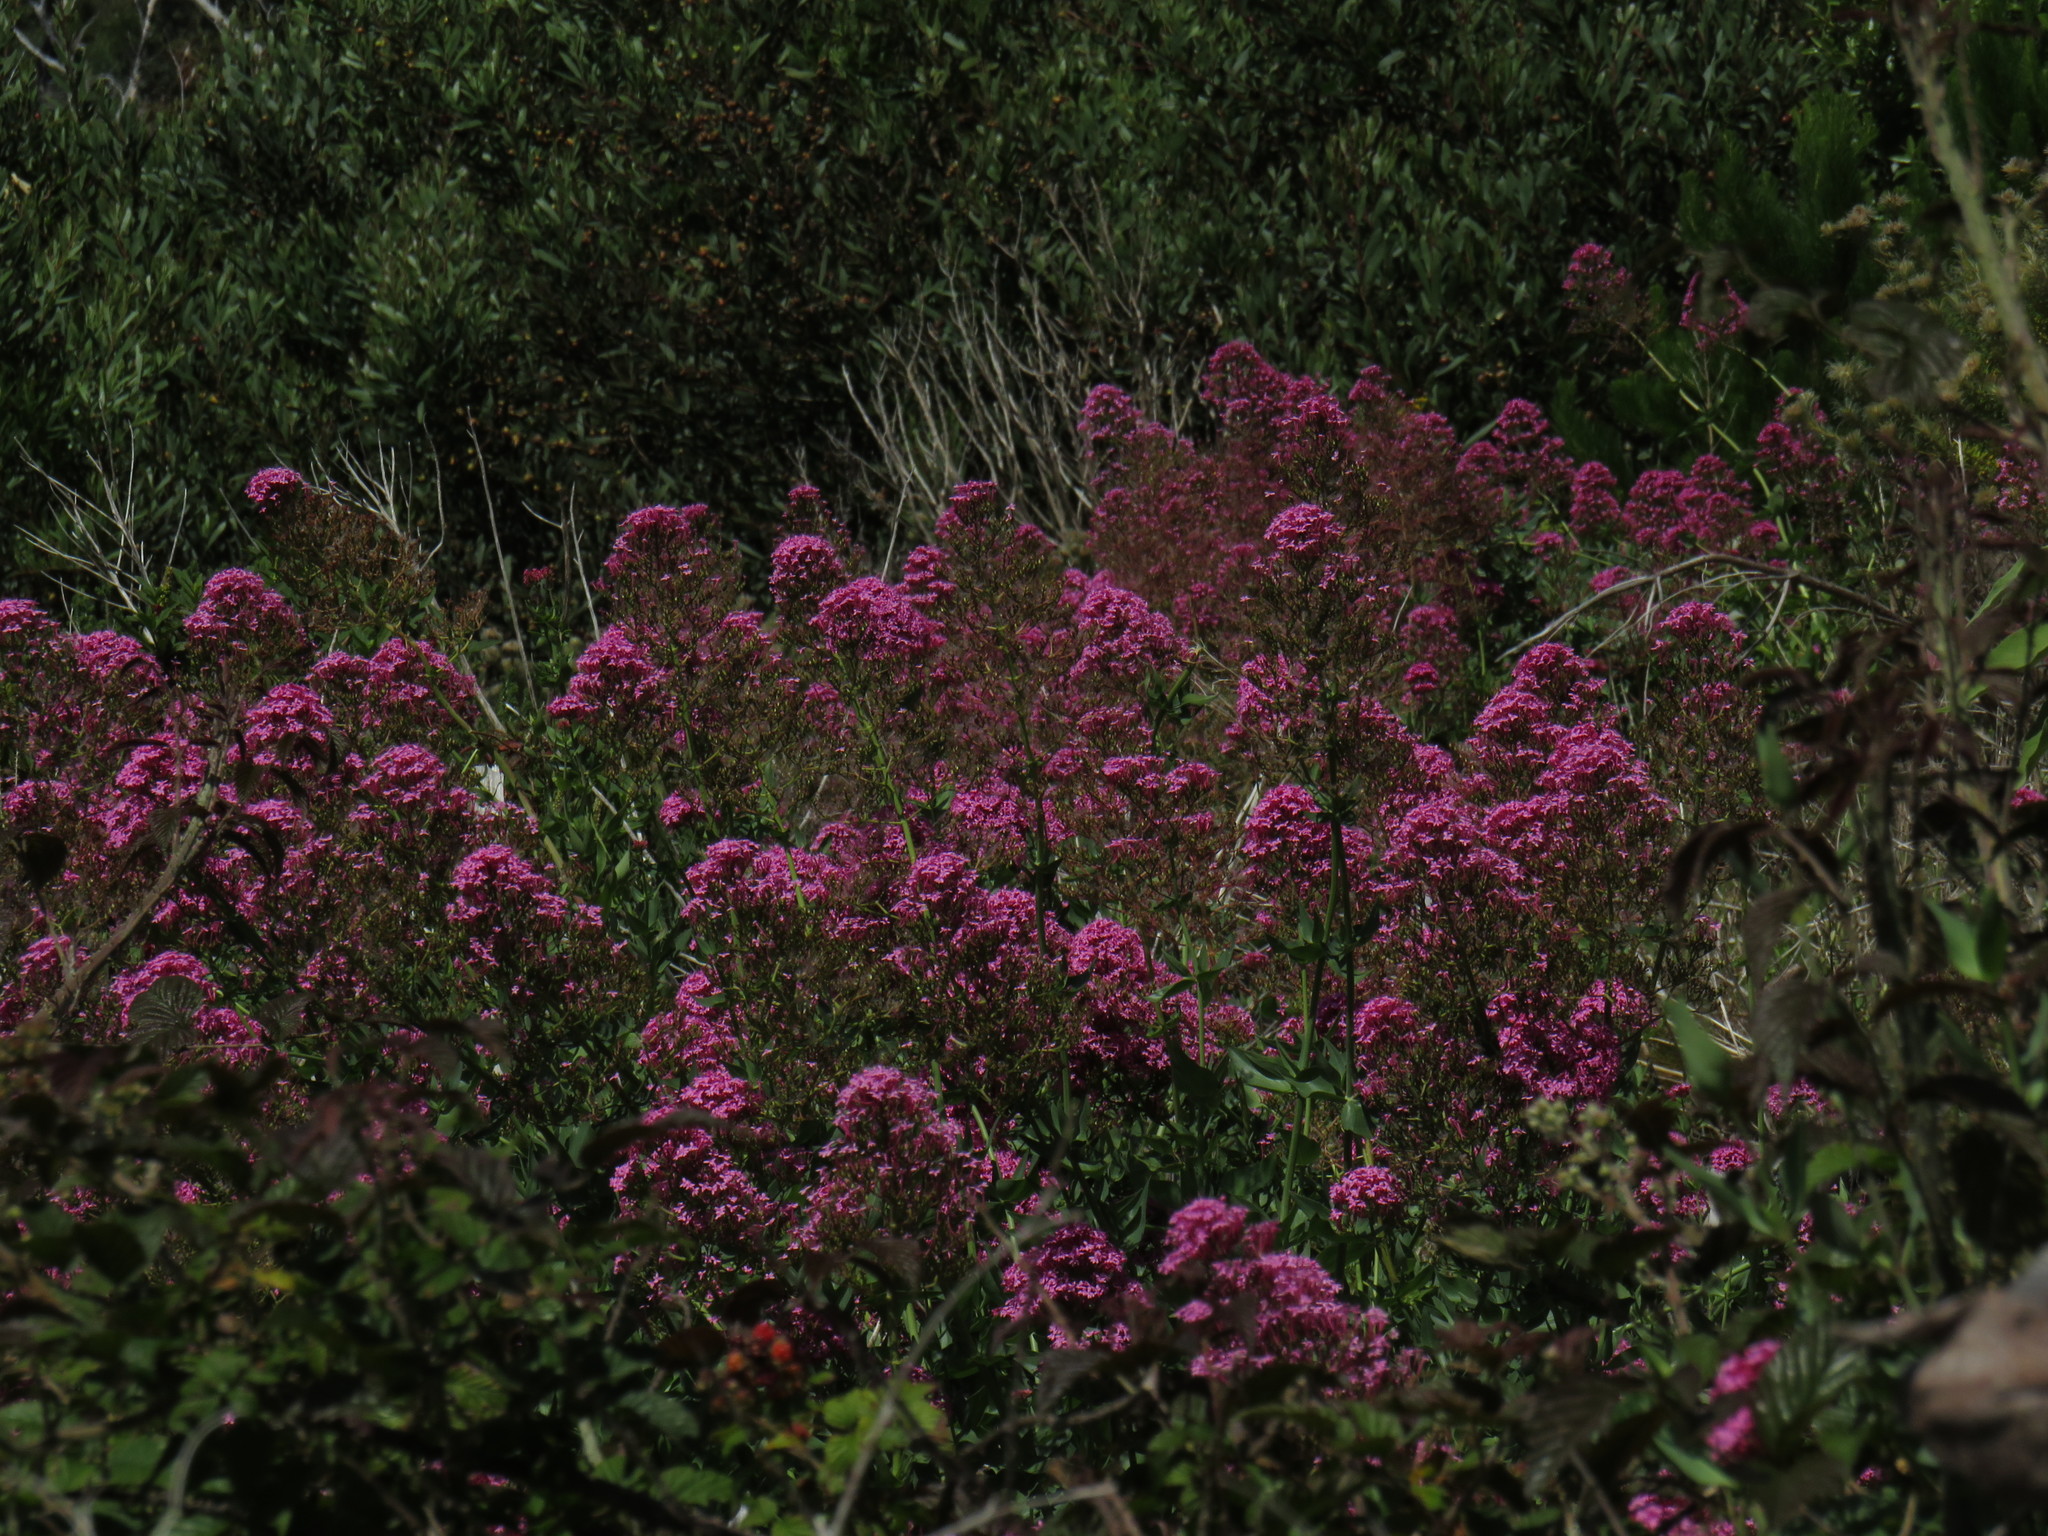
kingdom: Plantae
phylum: Tracheophyta
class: Magnoliopsida
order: Dipsacales
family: Caprifoliaceae
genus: Centranthus
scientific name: Centranthus ruber
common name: Red valerian
